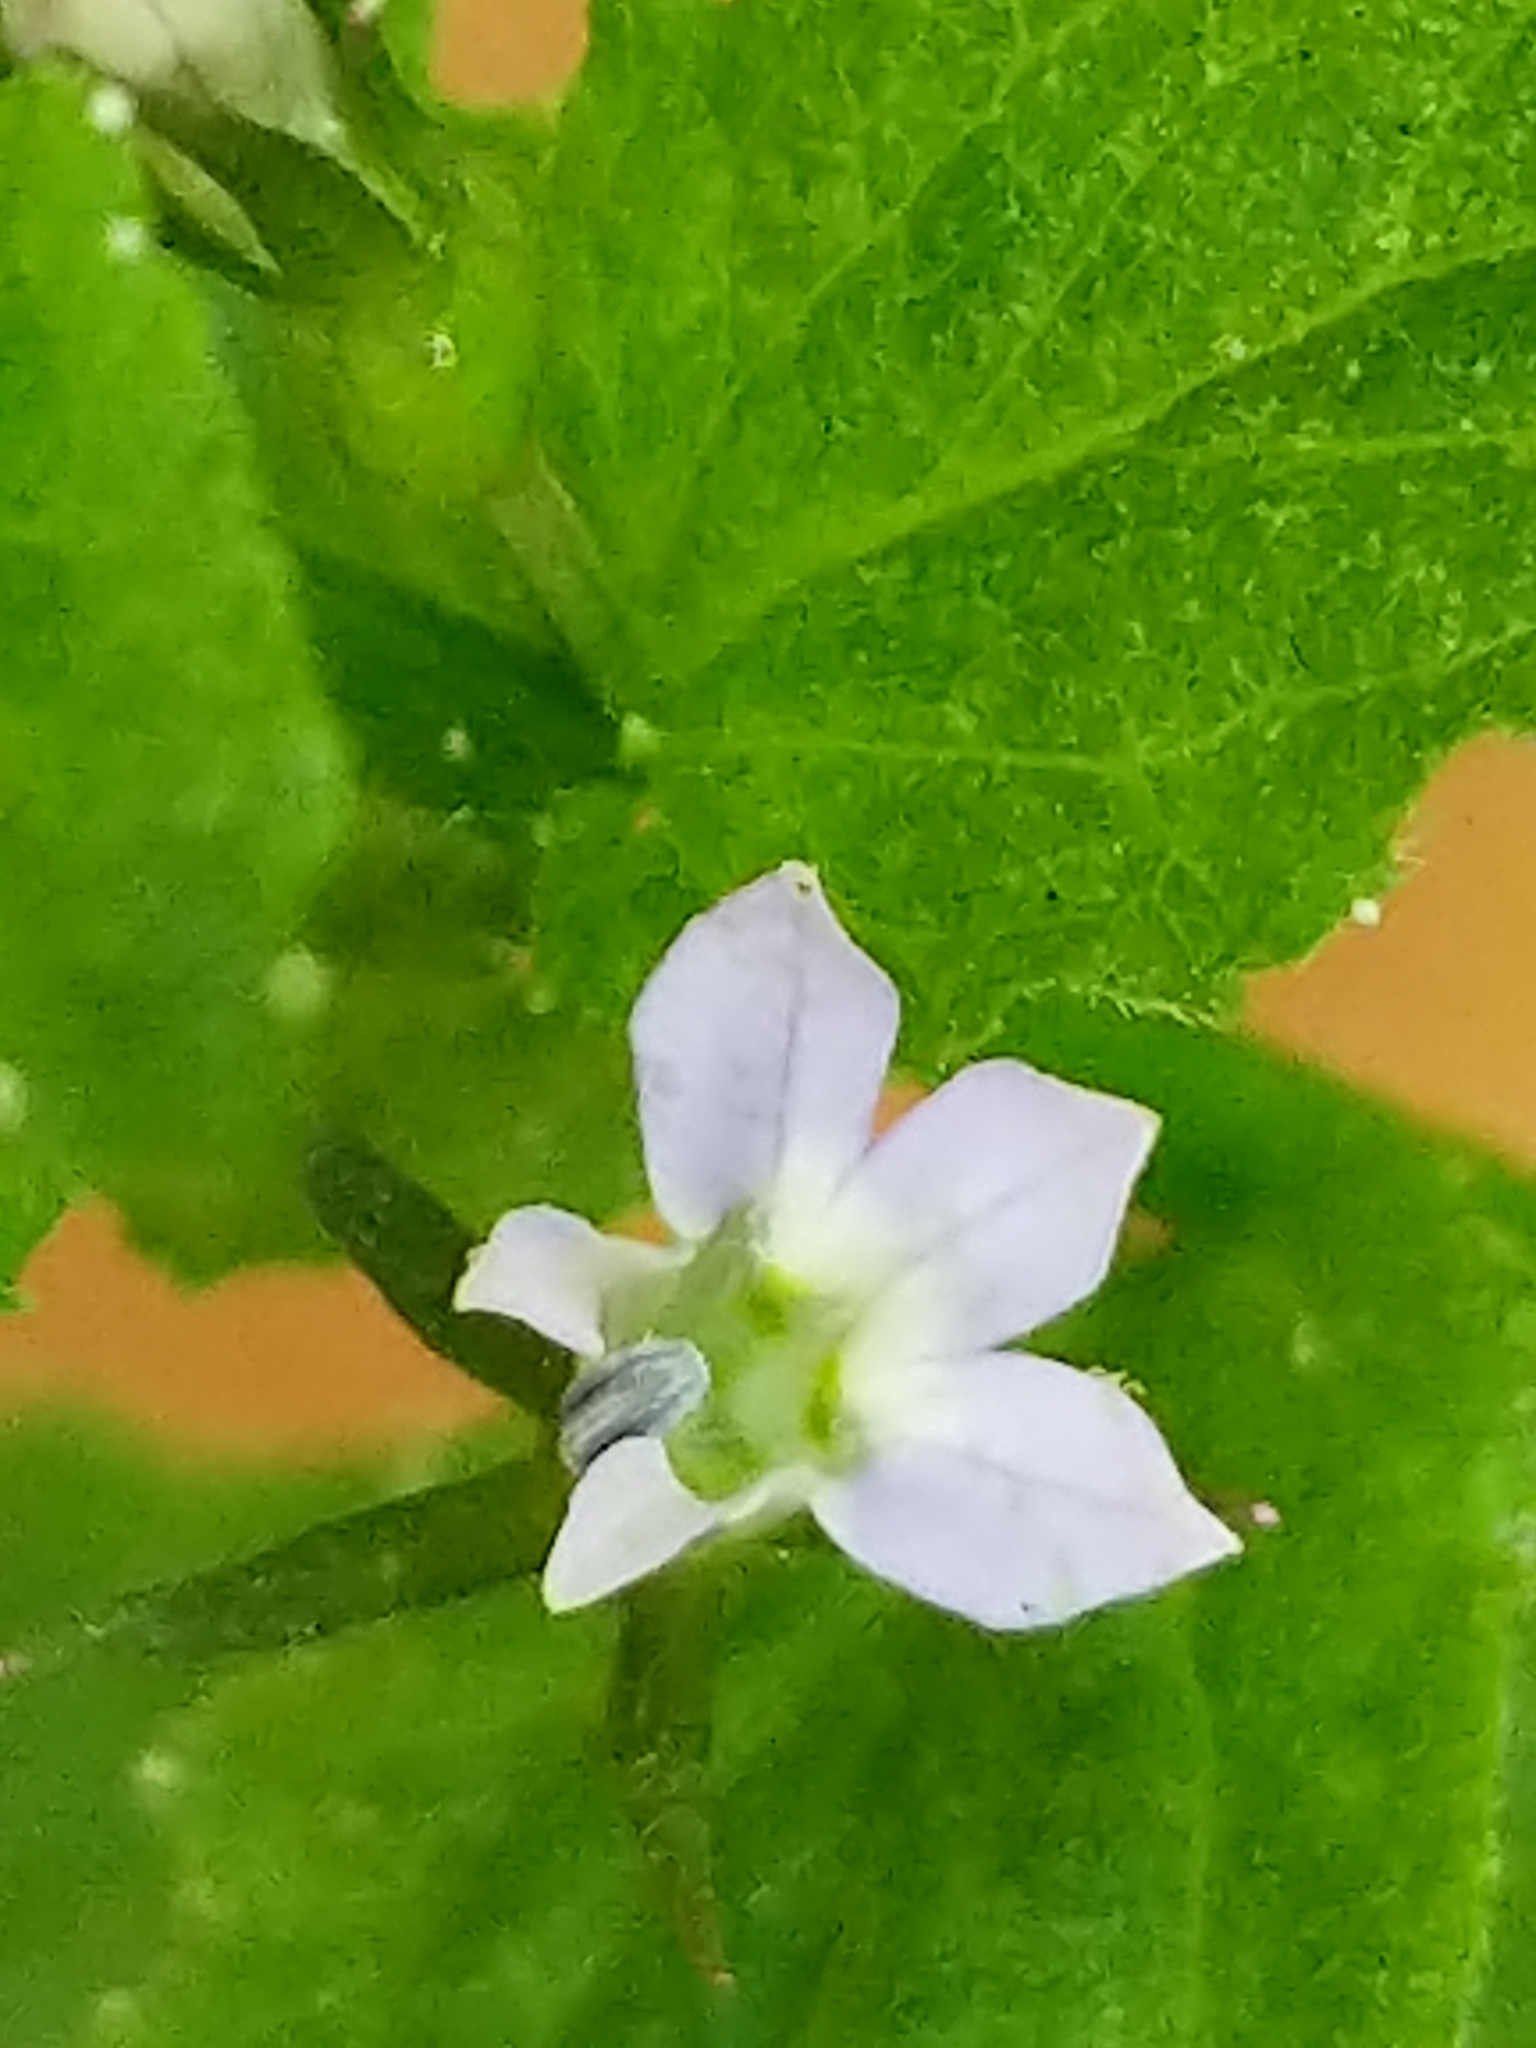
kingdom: Plantae
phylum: Tracheophyta
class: Magnoliopsida
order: Asterales
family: Campanulaceae
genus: Lobelia
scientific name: Lobelia inflata
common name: Indian tobacco
